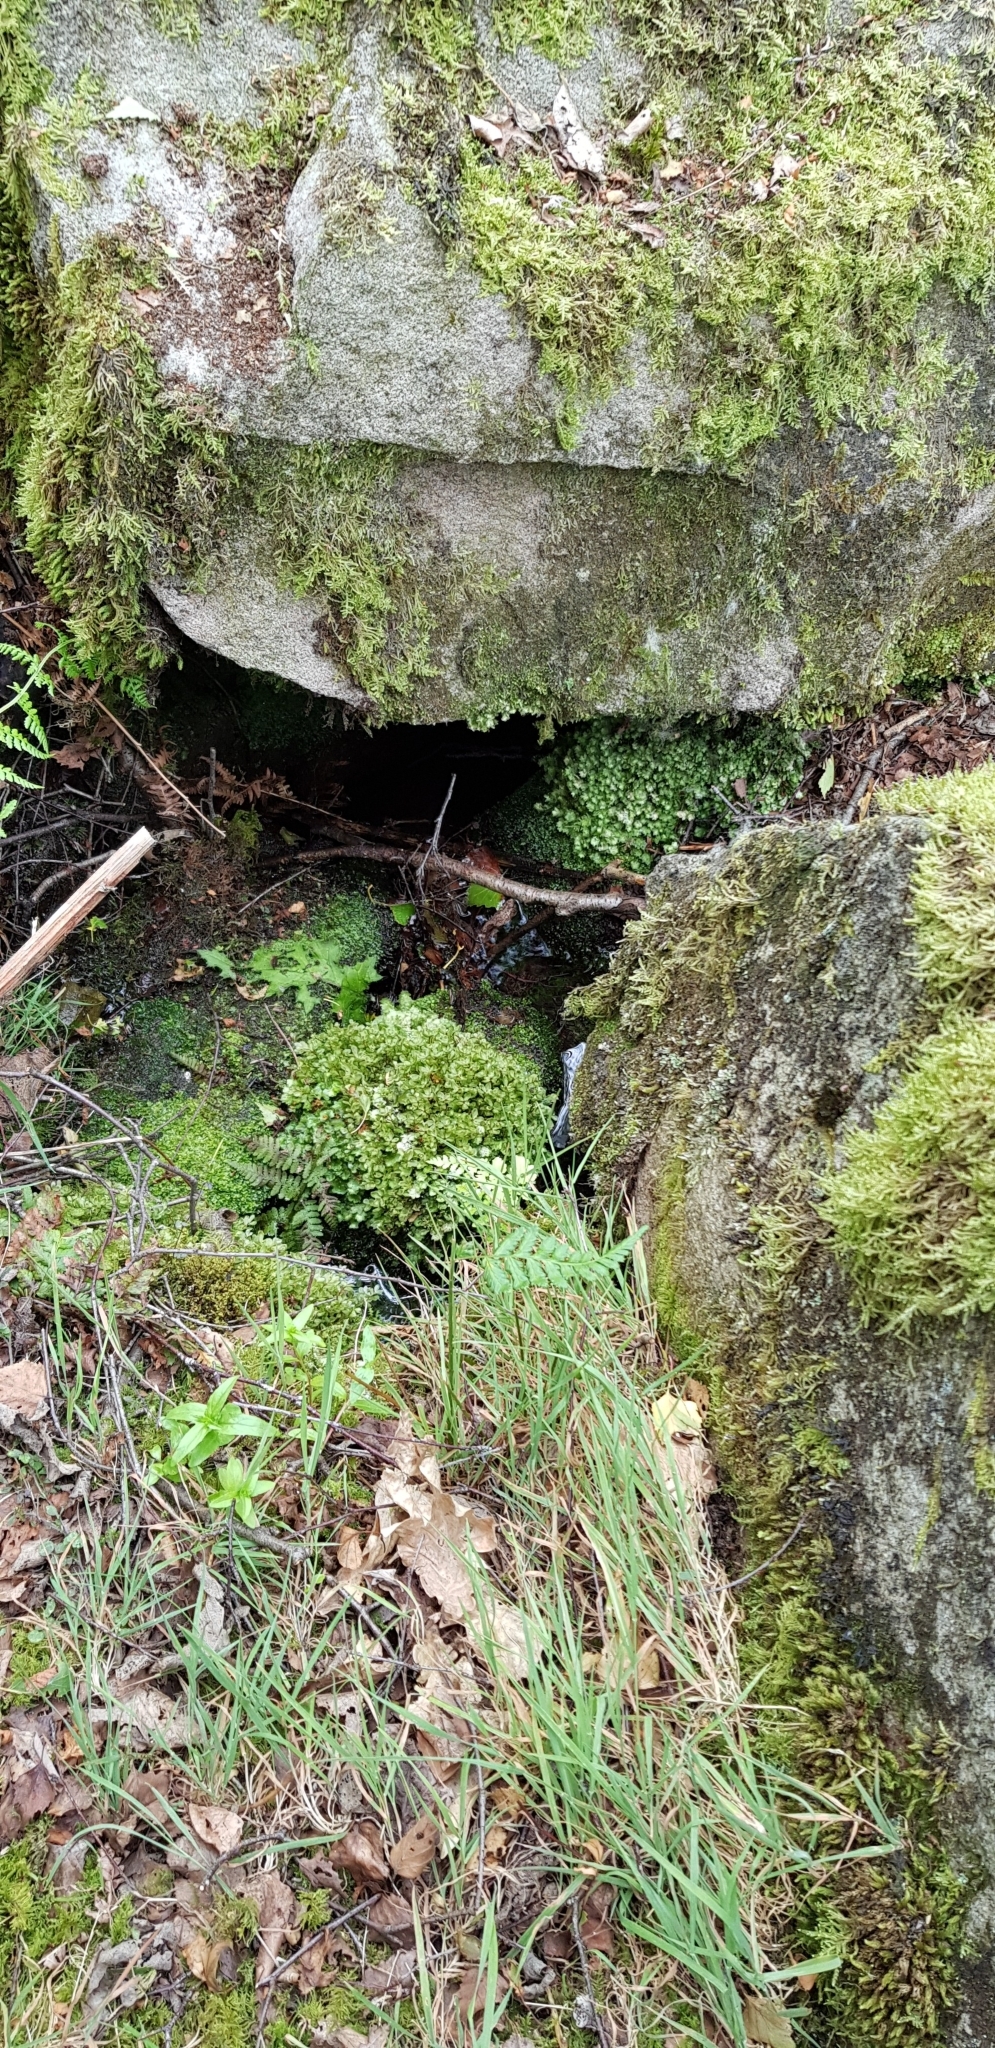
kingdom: Plantae
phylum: Bryophyta
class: Bryopsida
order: Bryales
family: Mniaceae
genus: Rhizomnium
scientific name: Rhizomnium punctatum
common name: Dotted leafy moss
